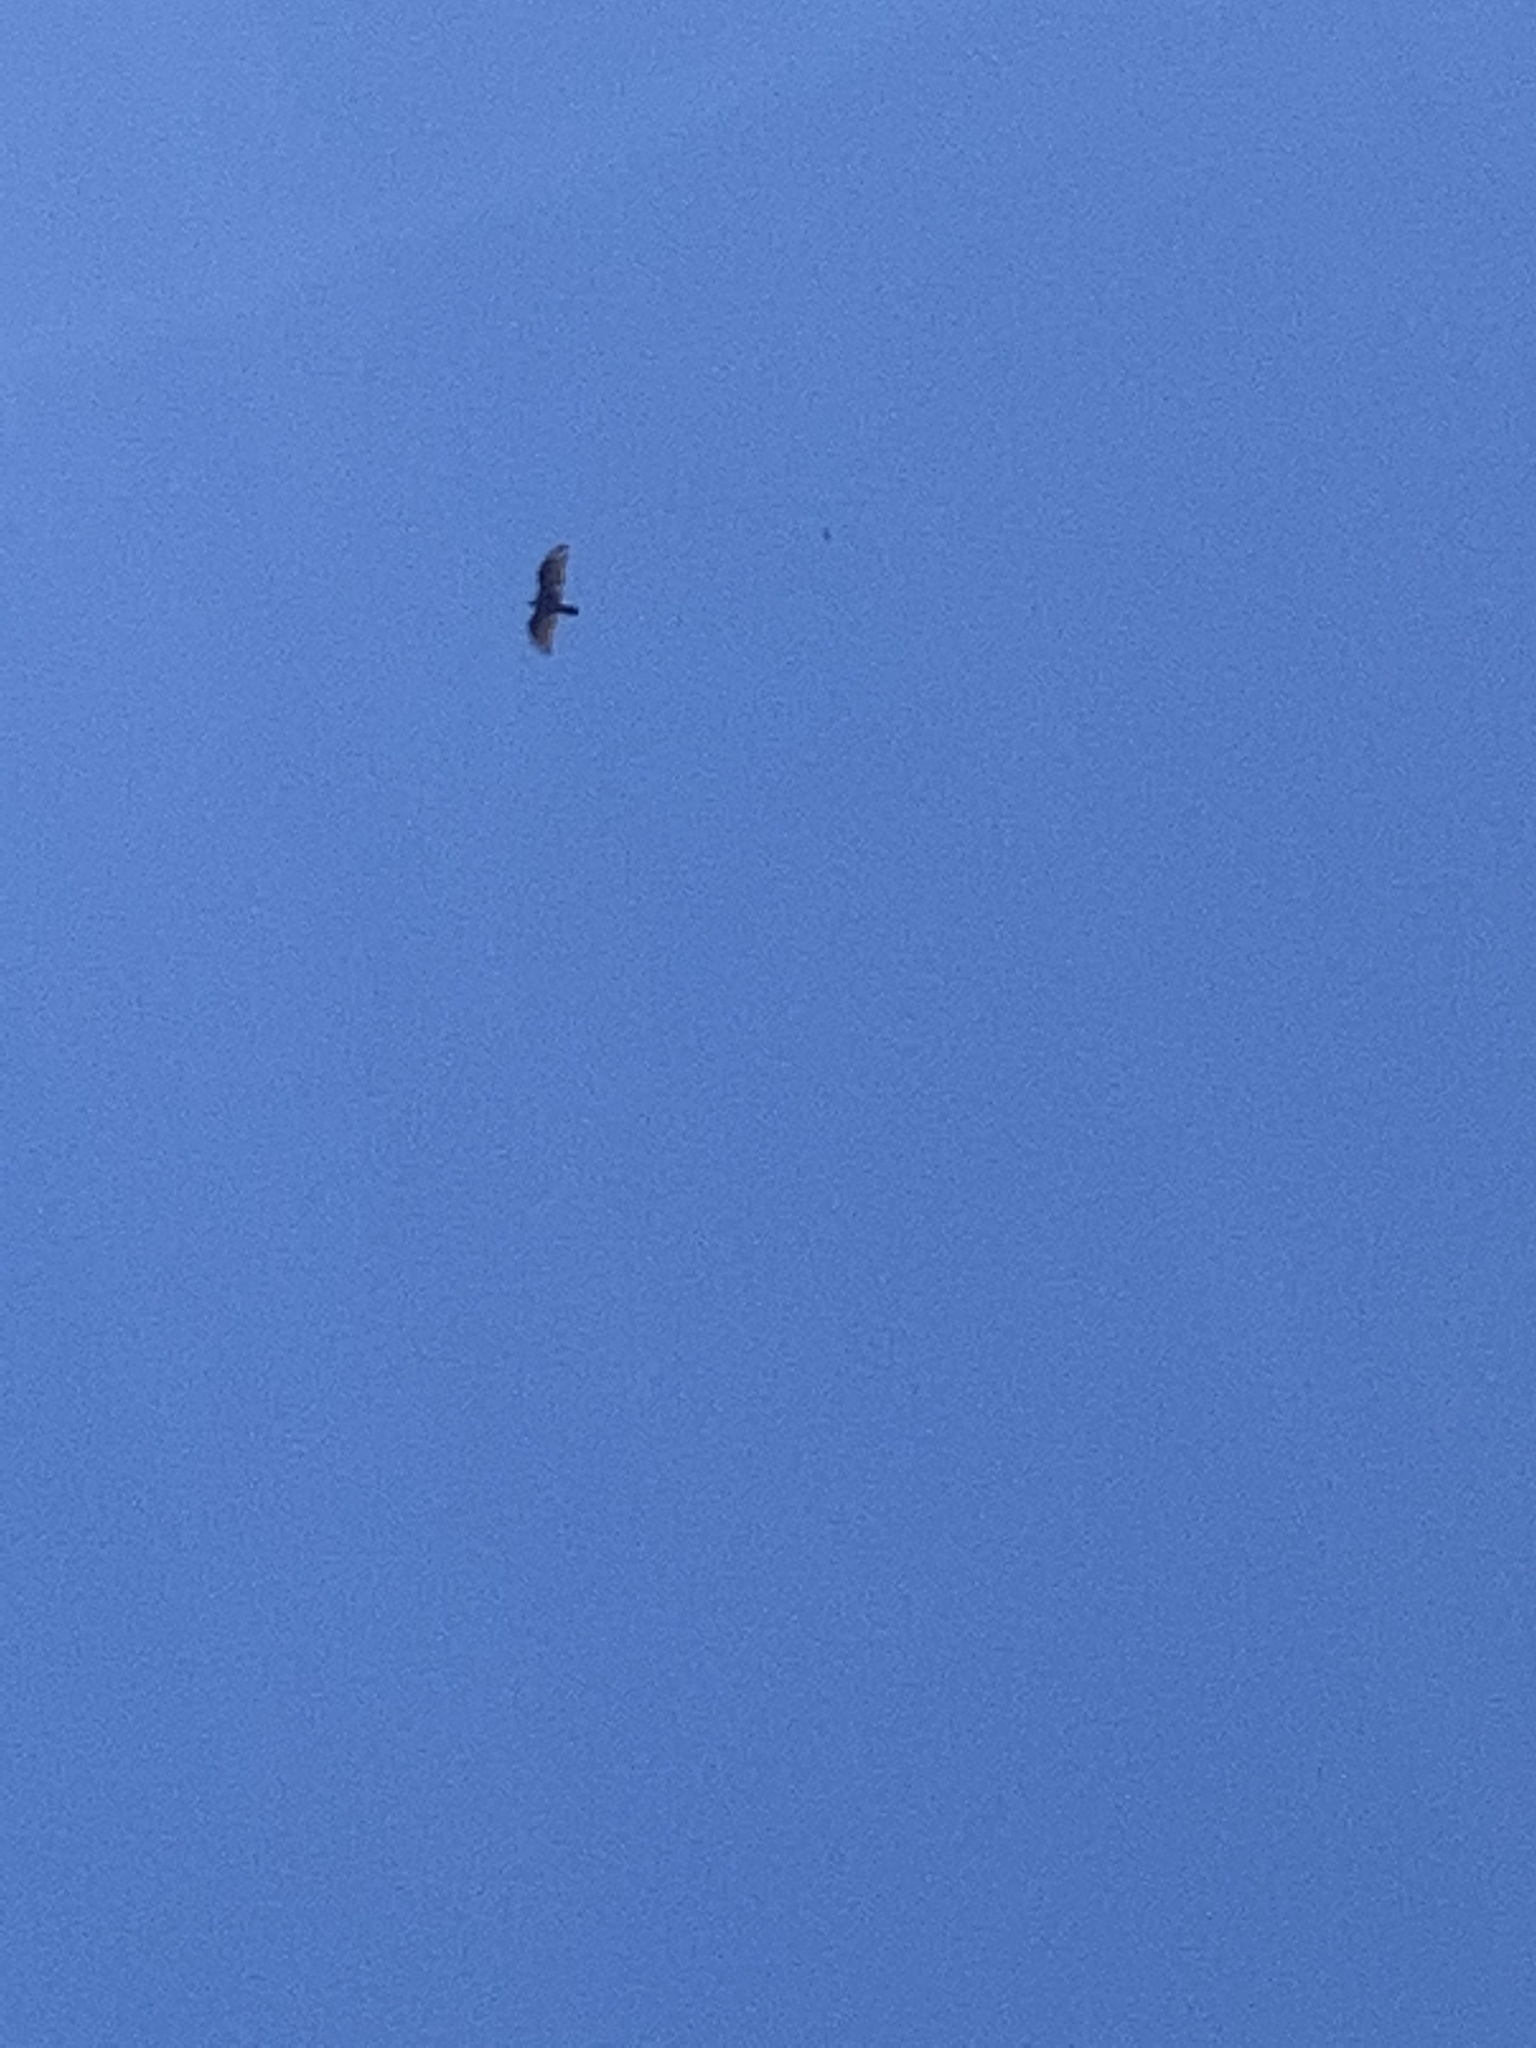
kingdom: Animalia
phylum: Chordata
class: Aves
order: Accipitriformes
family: Cathartidae
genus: Cathartes
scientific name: Cathartes aura
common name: Turkey vulture
